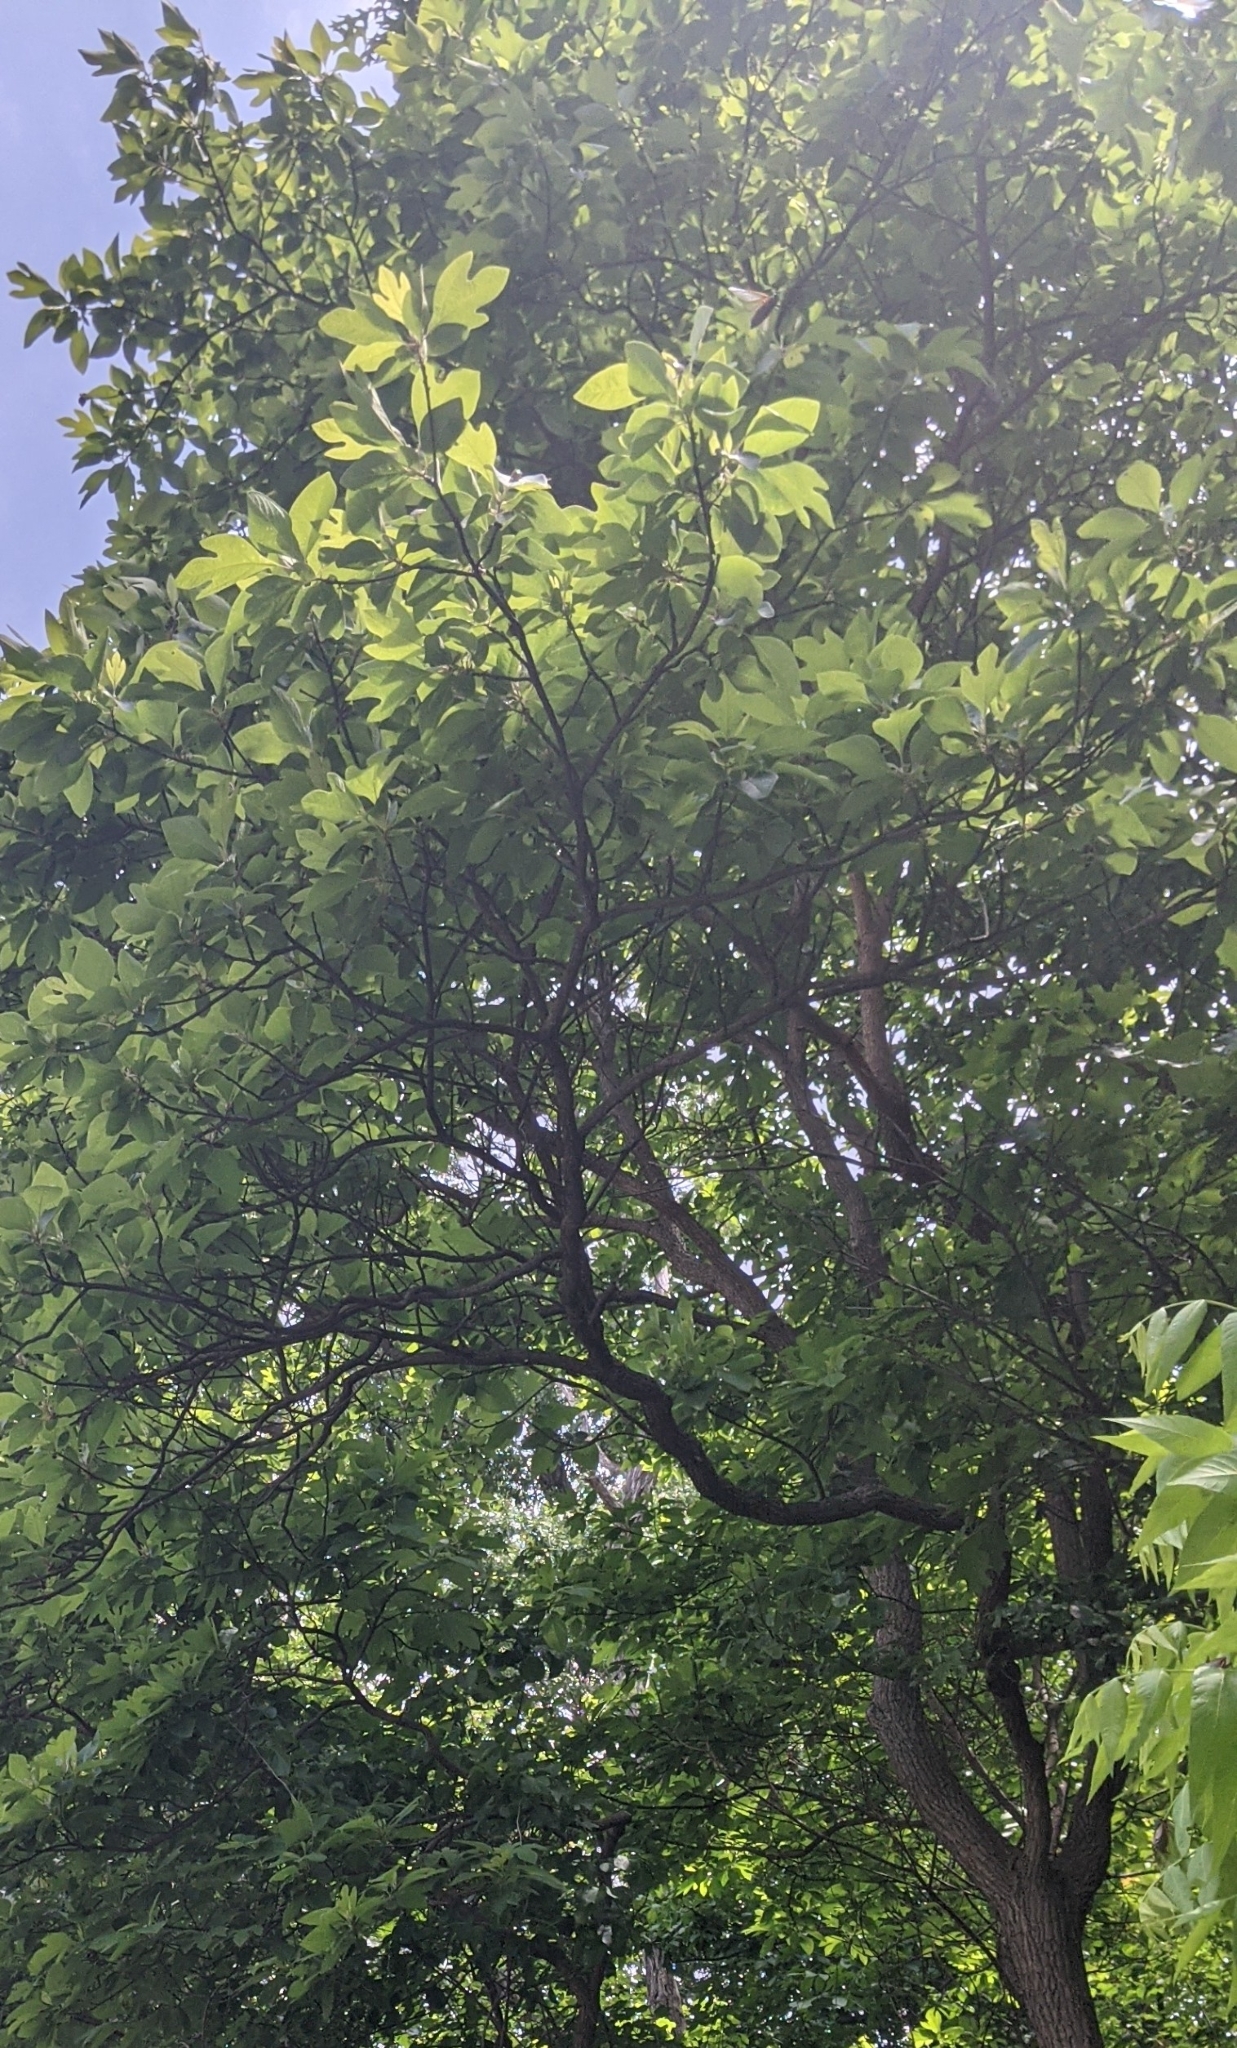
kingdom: Plantae
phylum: Tracheophyta
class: Magnoliopsida
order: Laurales
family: Lauraceae
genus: Sassafras
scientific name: Sassafras albidum
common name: Sassafras
